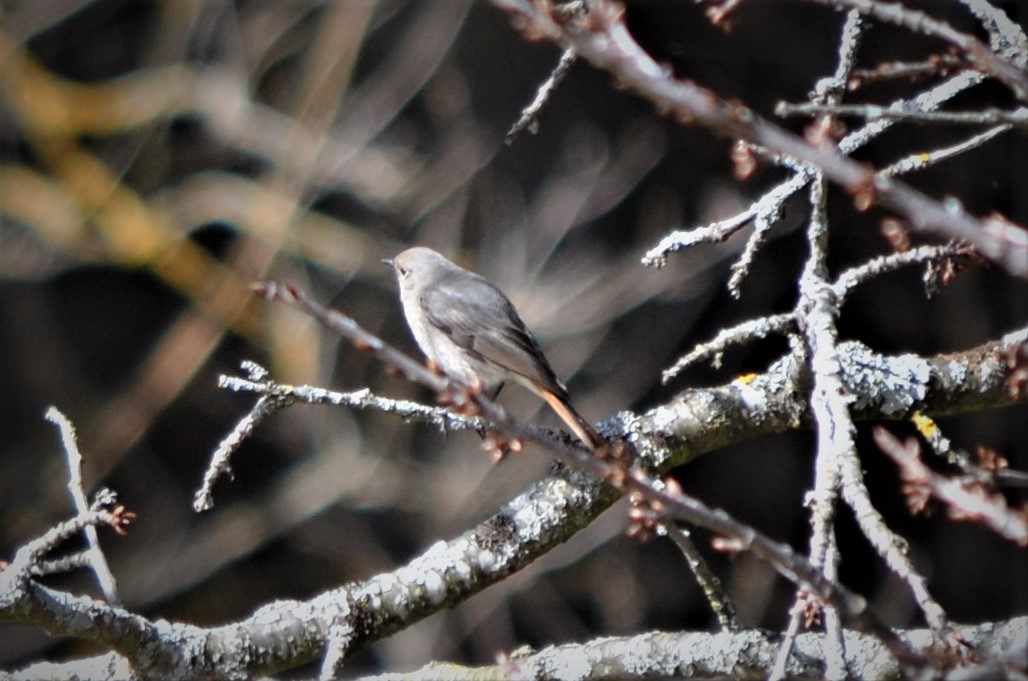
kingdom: Animalia
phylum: Chordata
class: Aves
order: Passeriformes
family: Muscicapidae
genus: Phoenicurus
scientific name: Phoenicurus ochruros
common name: Black redstart
